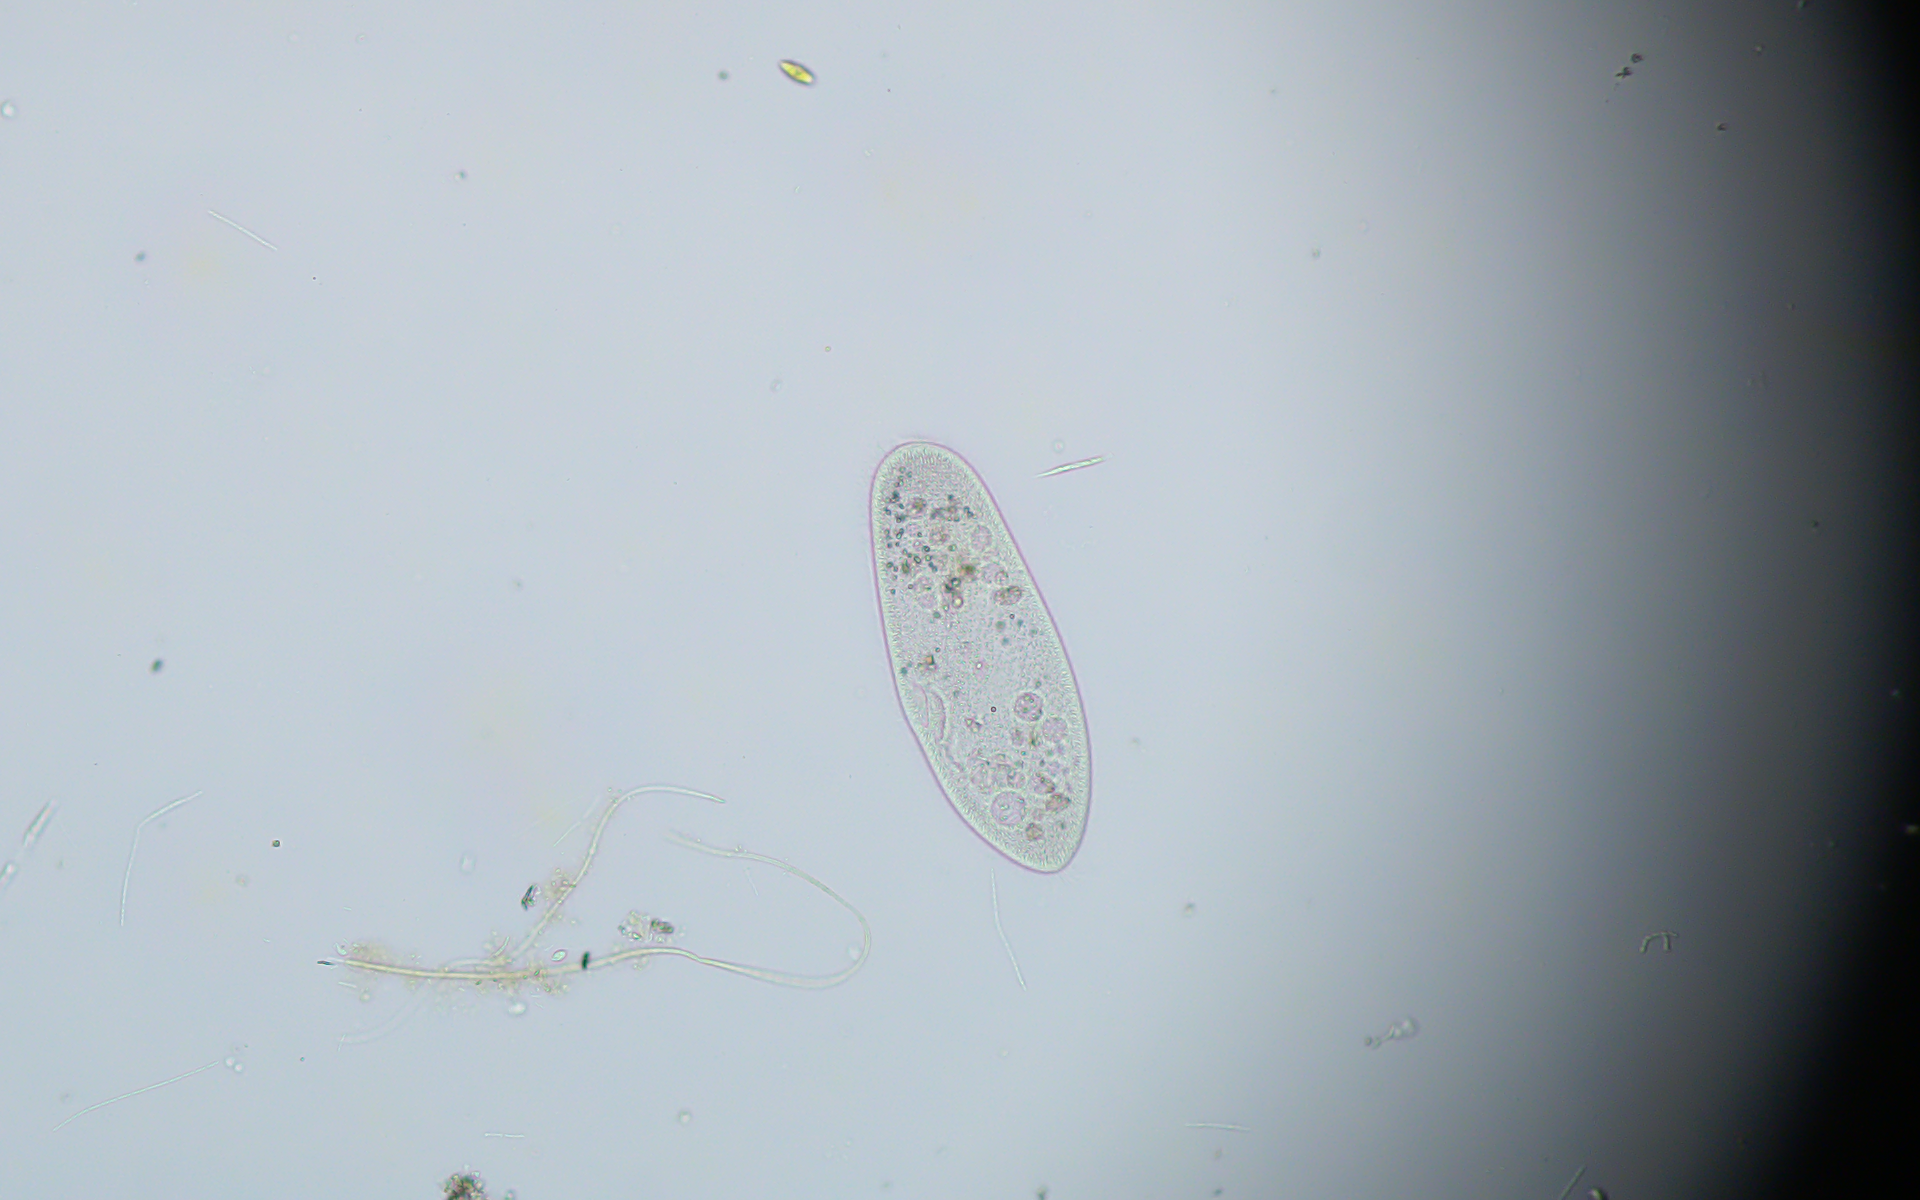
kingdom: Chromista
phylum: Ciliophora
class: Oligohymenophorea
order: Peniculida
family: Parameciidae
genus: Paramecium
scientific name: Paramecium
